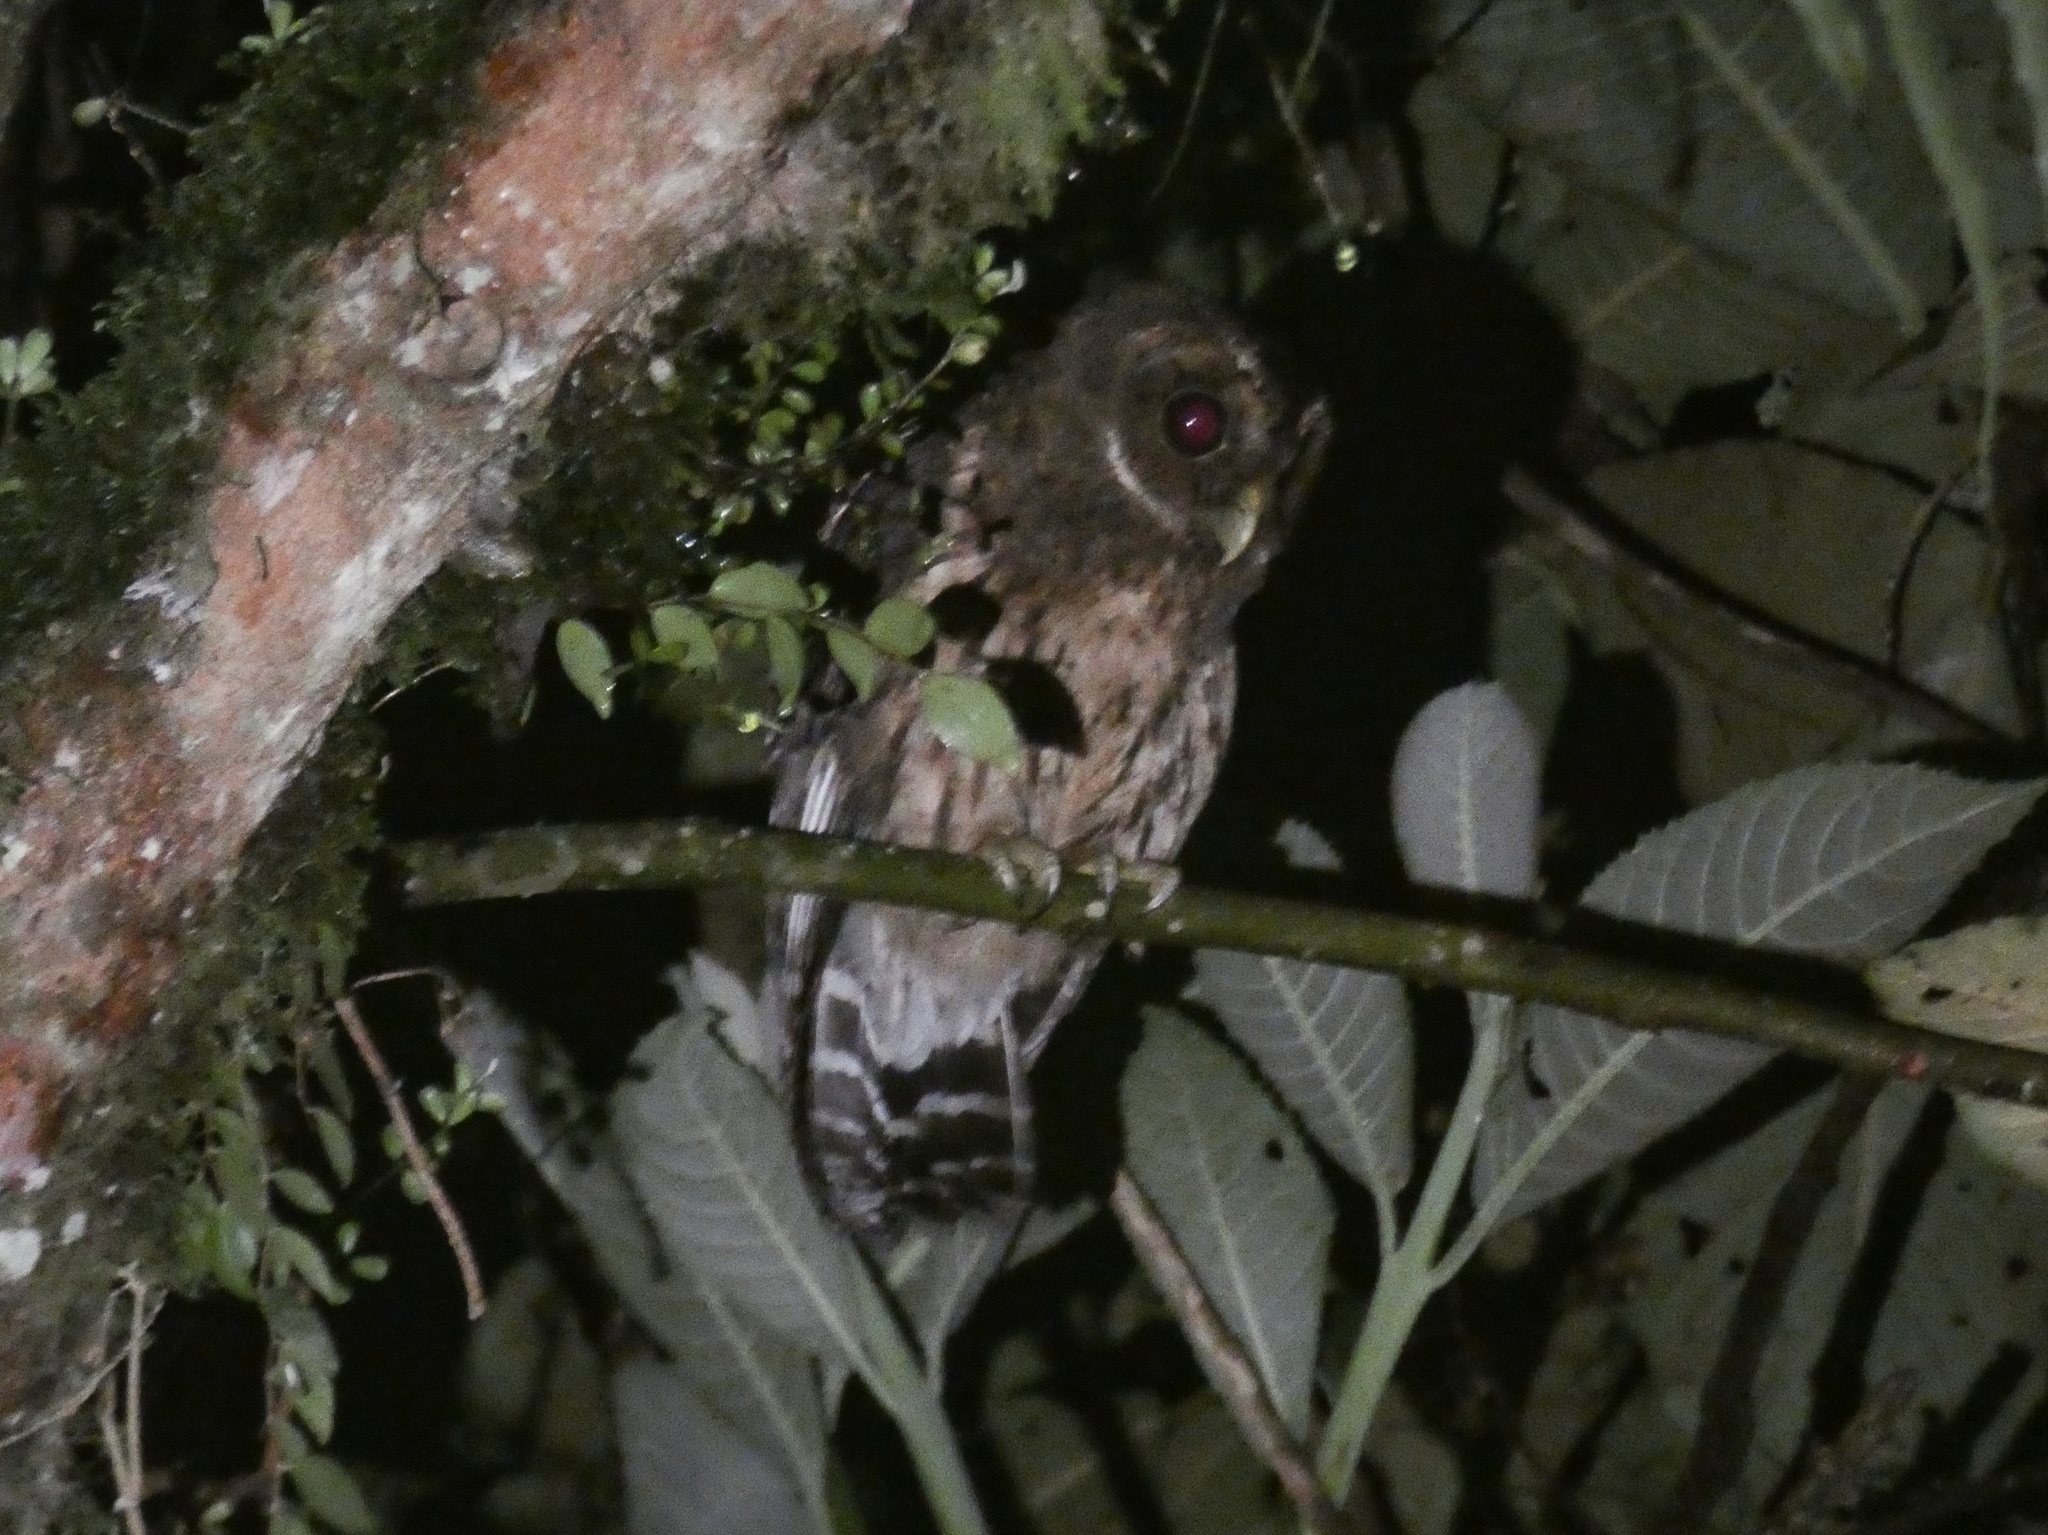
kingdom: Animalia
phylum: Chordata
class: Aves
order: Strigiformes
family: Strigidae
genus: Strix
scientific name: Strix virgata
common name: Mottled owl
